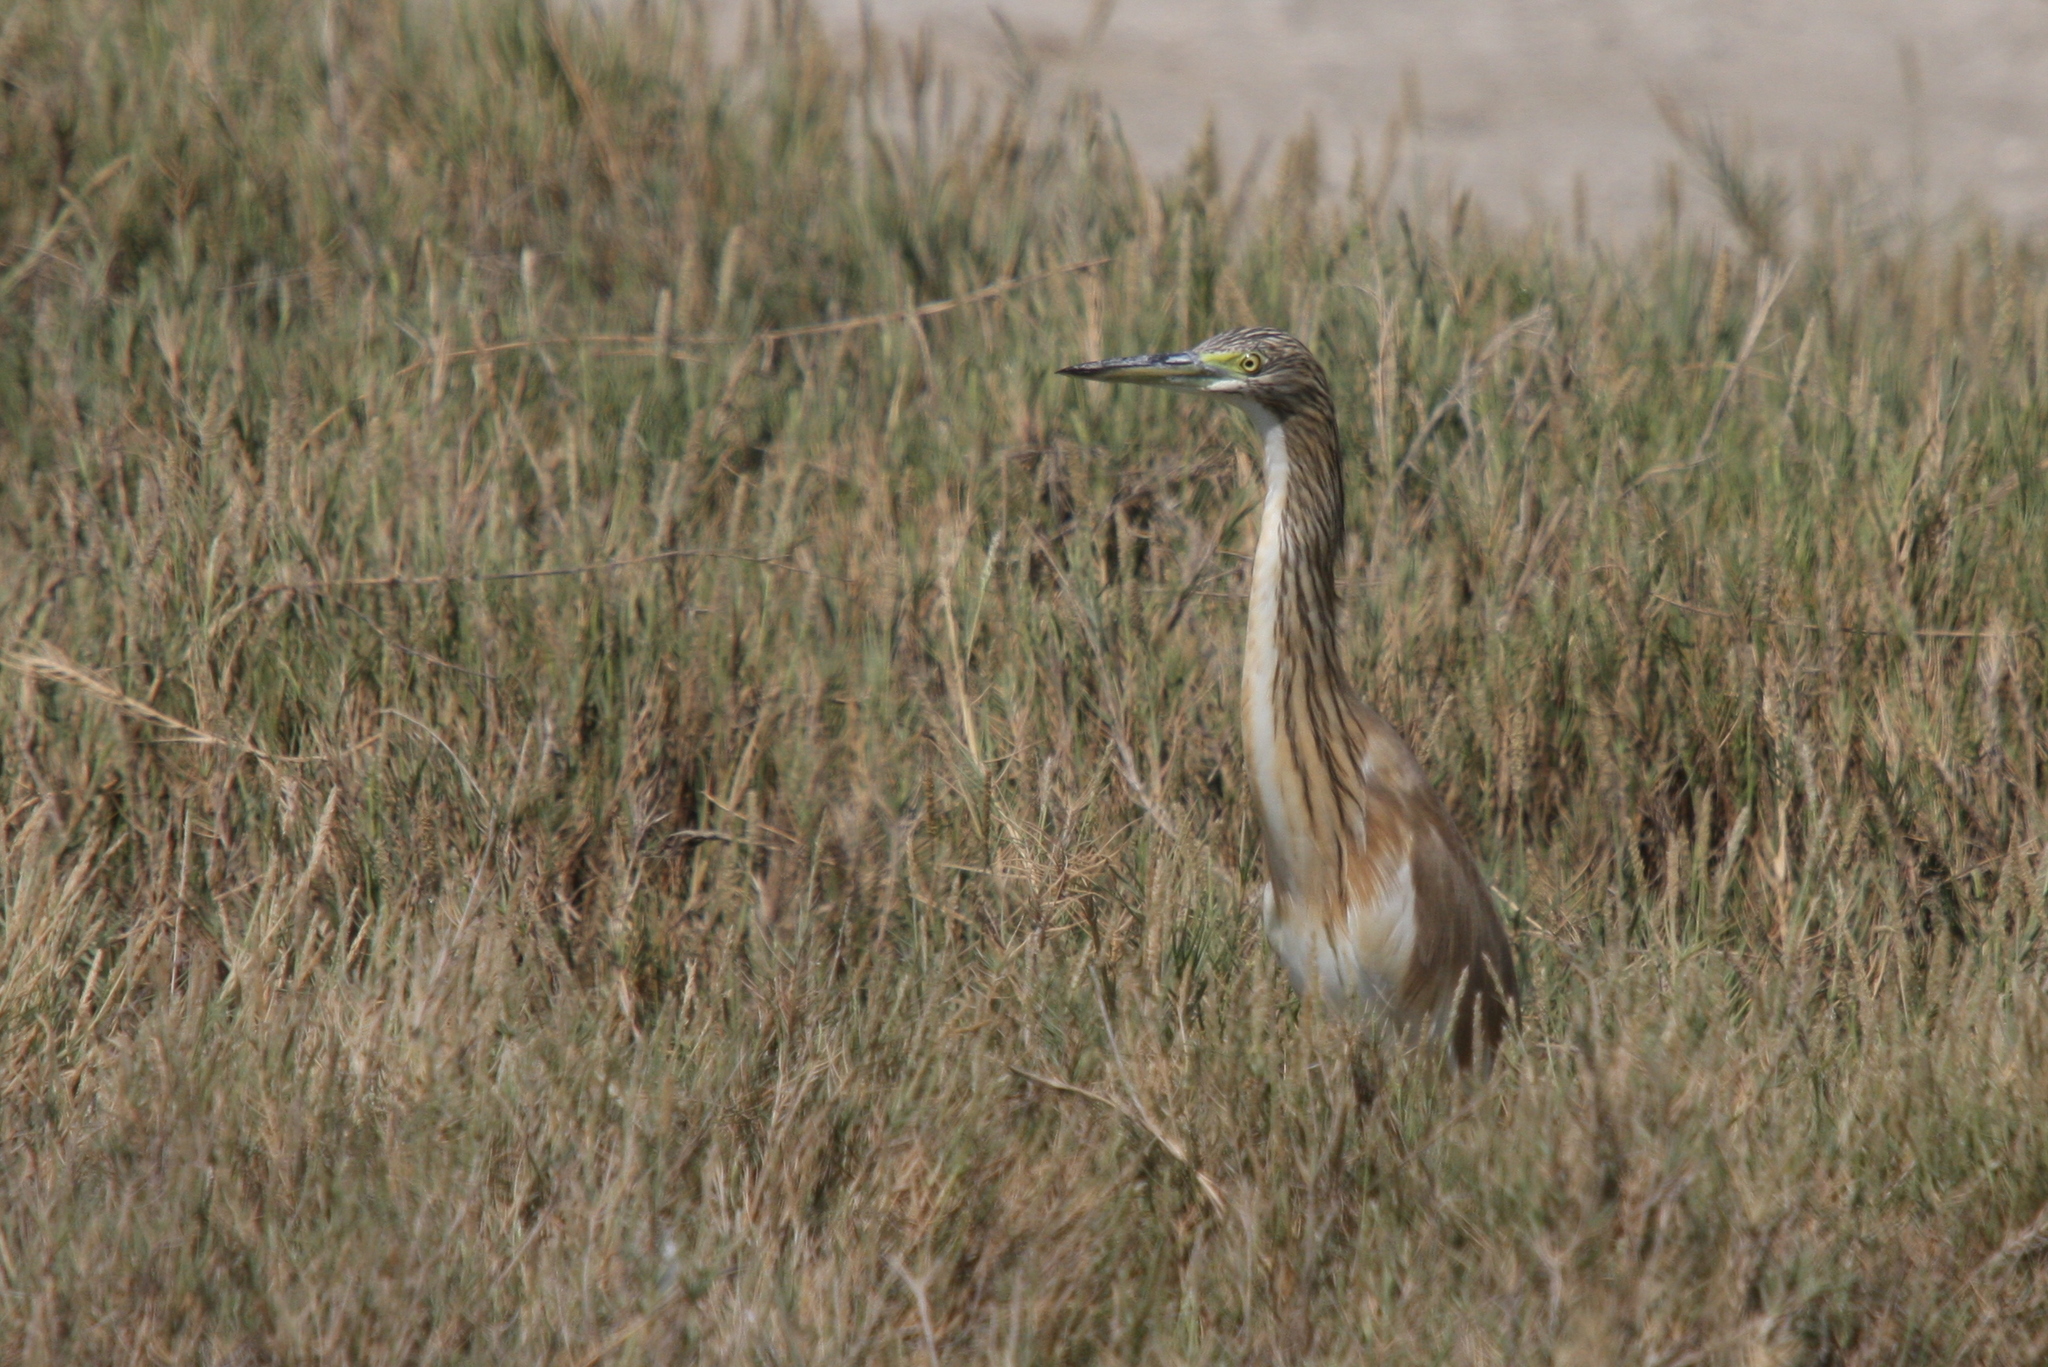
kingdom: Animalia
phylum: Chordata
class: Aves
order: Pelecaniformes
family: Ardeidae
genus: Ardeola
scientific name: Ardeola ralloides
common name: Squacco heron
